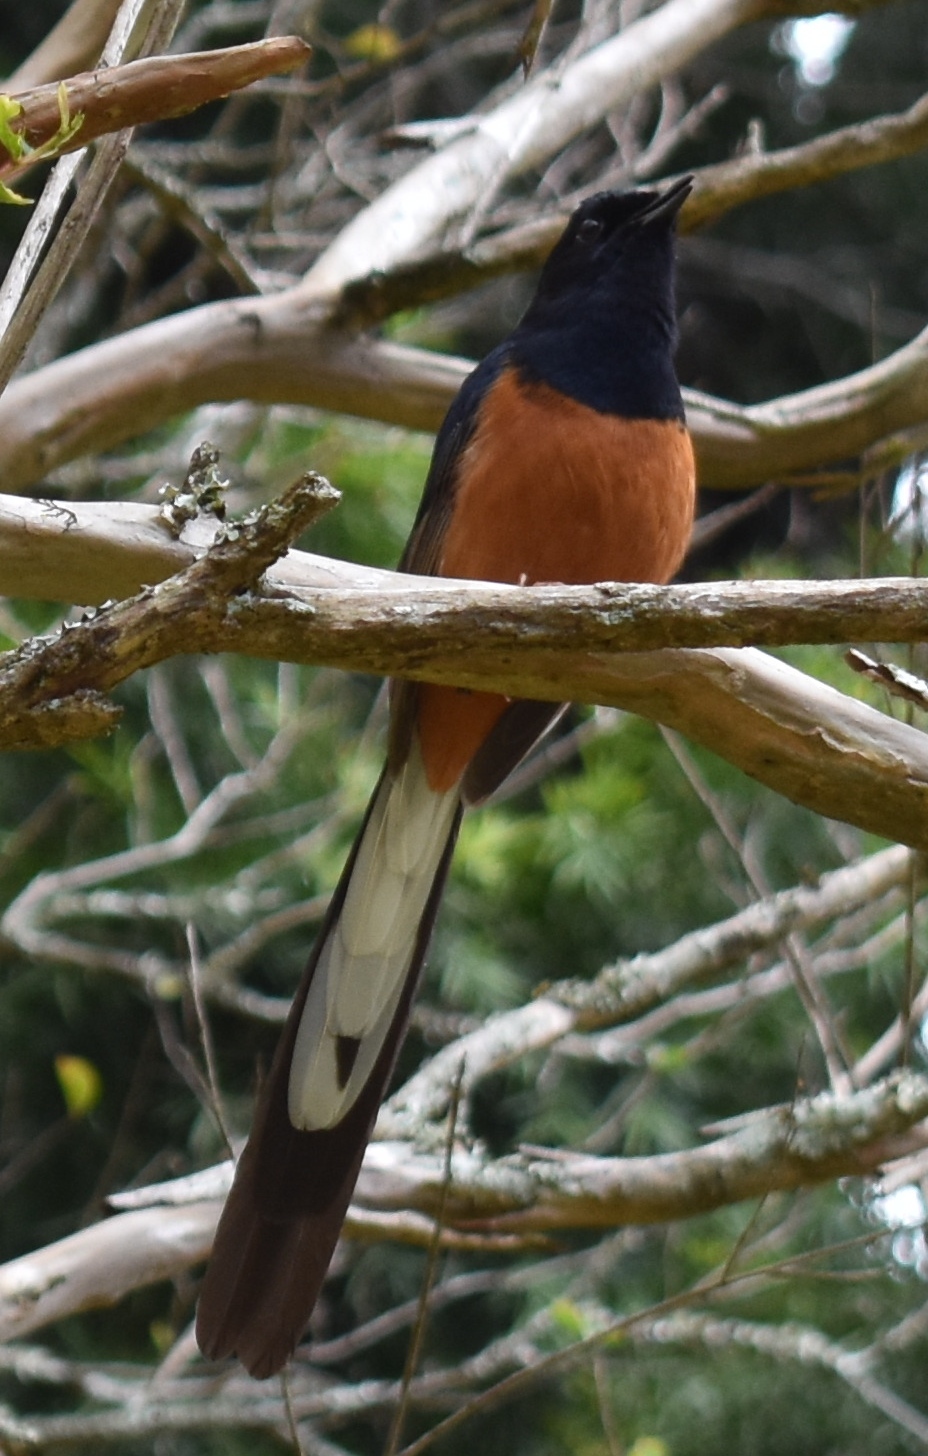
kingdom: Animalia
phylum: Chordata
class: Aves
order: Passeriformes
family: Muscicapidae
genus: Copsychus
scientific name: Copsychus malabaricus
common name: White-rumped shama
